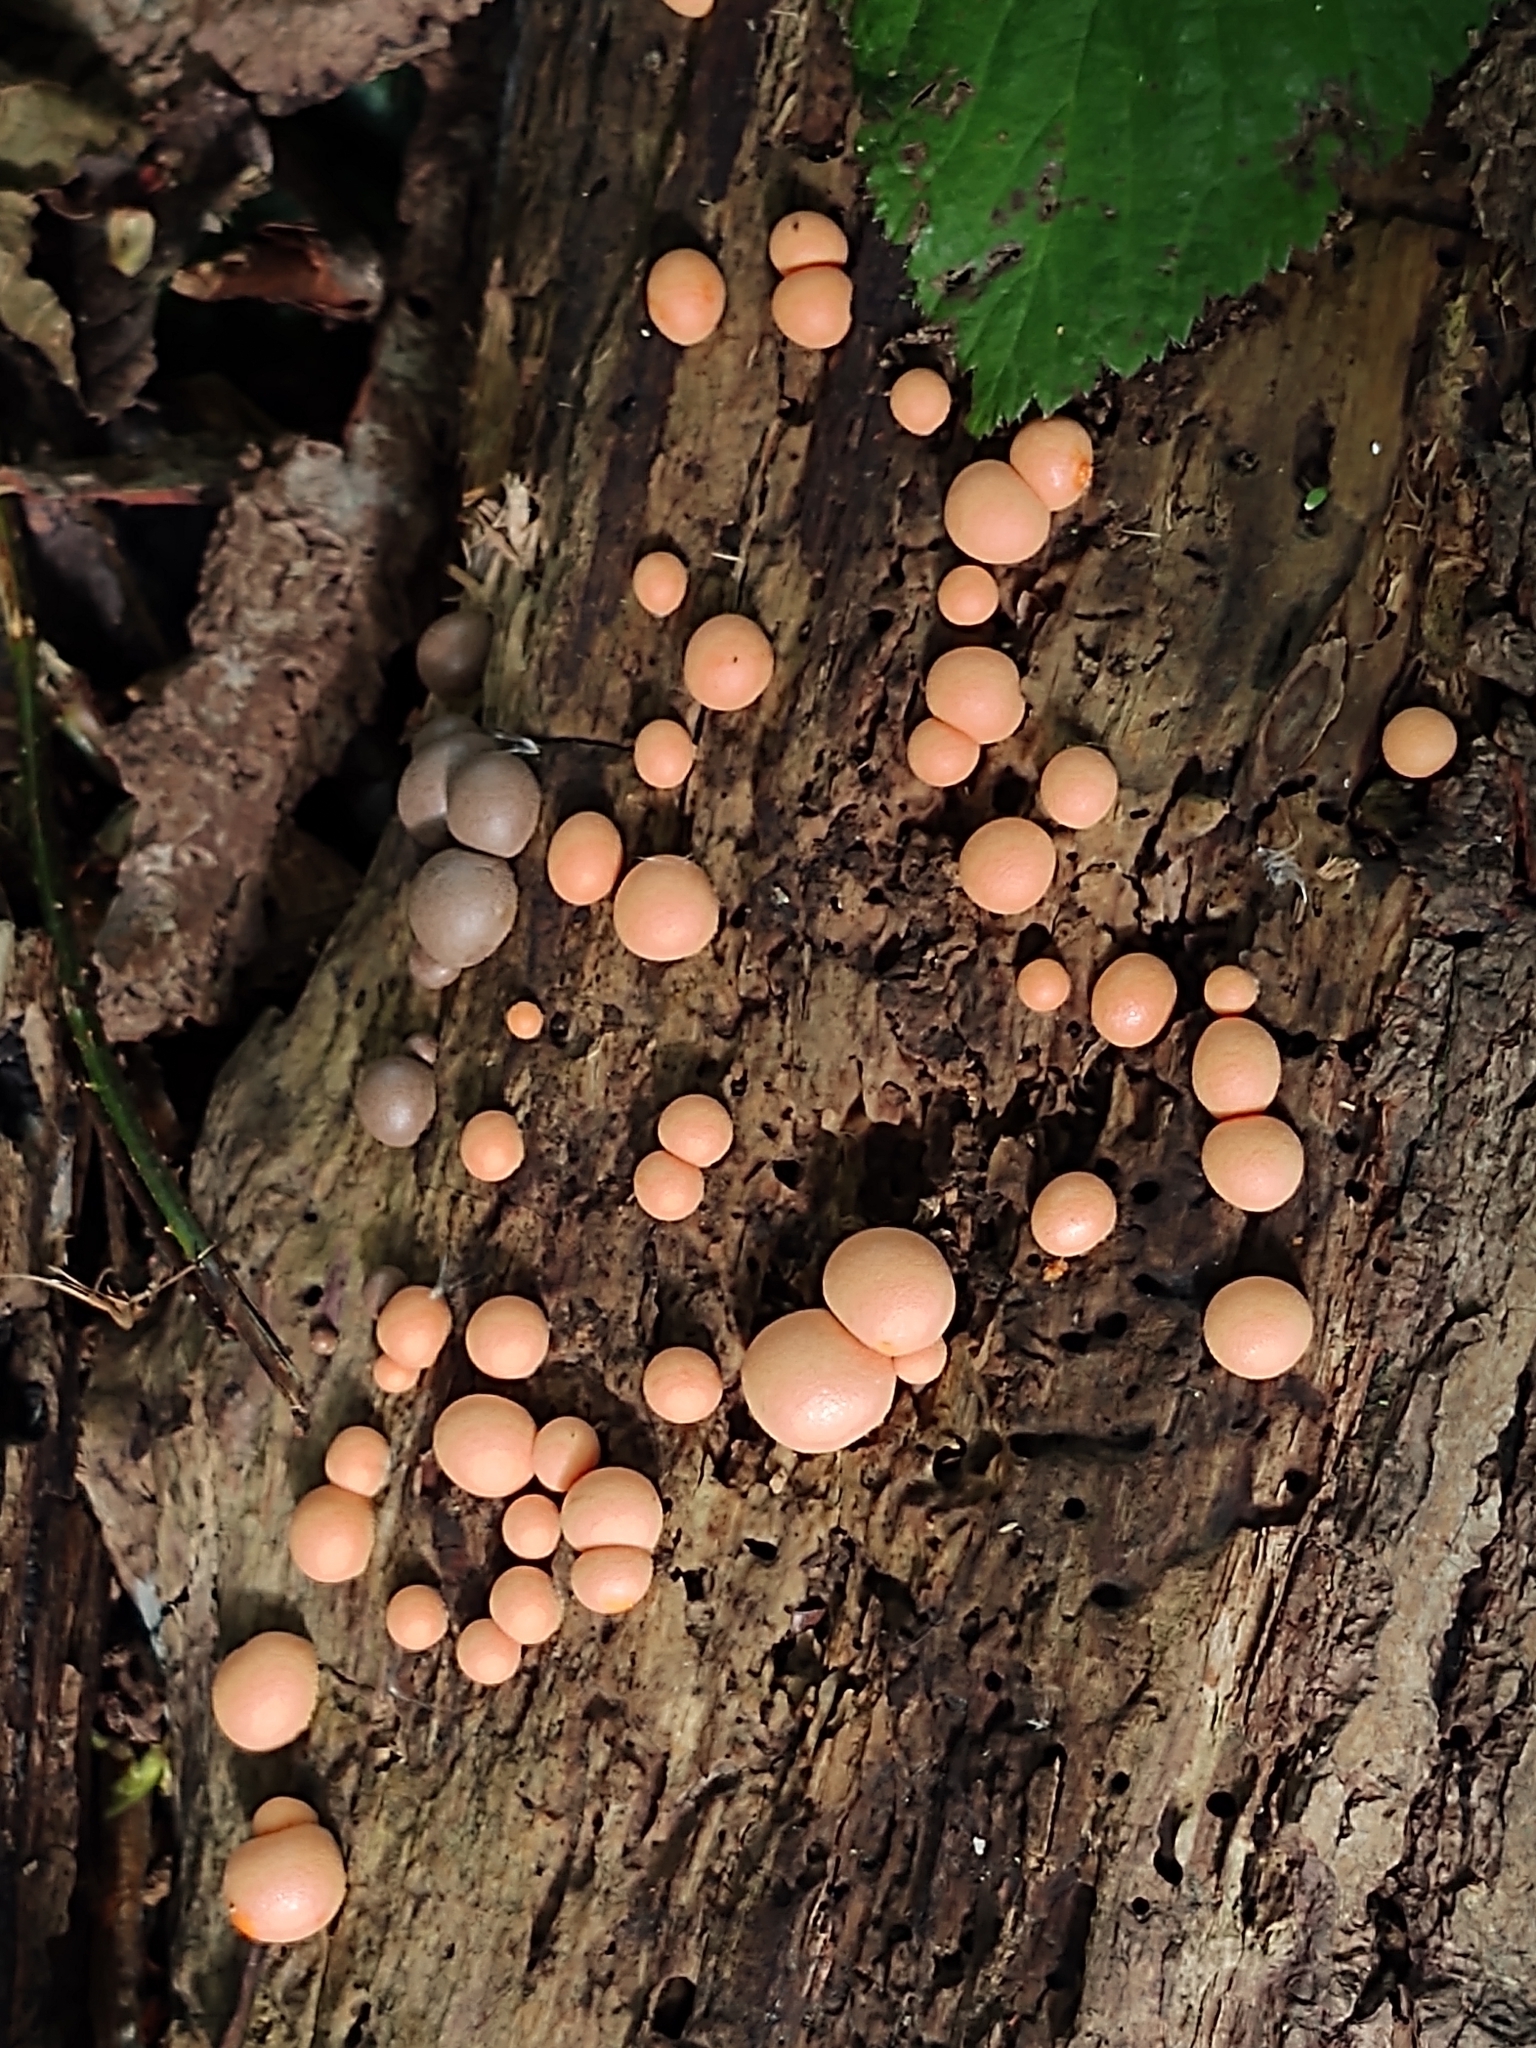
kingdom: Protozoa
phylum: Mycetozoa
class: Myxomycetes
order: Cribrariales
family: Tubiferaceae
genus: Lycogala
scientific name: Lycogala epidendrum
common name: Wolf's milk
